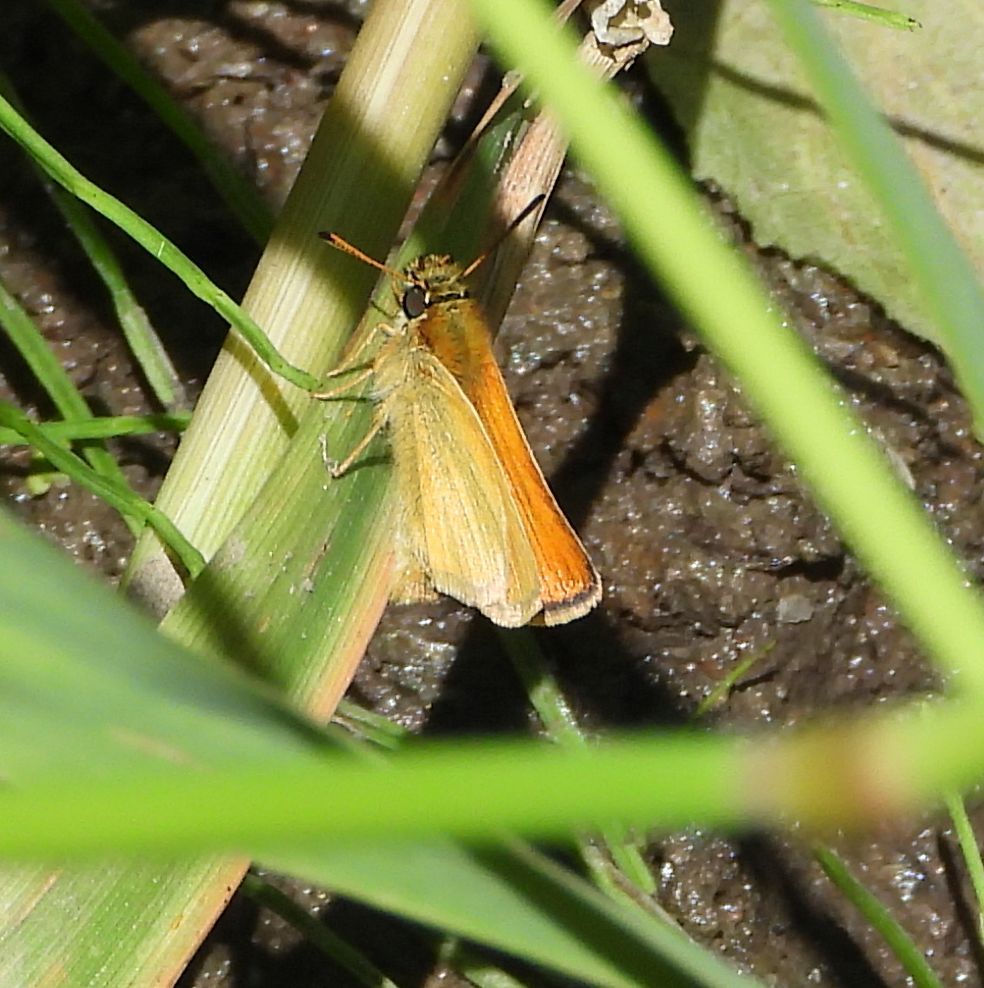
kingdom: Animalia
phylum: Arthropoda
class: Insecta
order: Lepidoptera
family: Hesperiidae
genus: Thymelicus
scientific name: Thymelicus lineola
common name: Essex skipper
